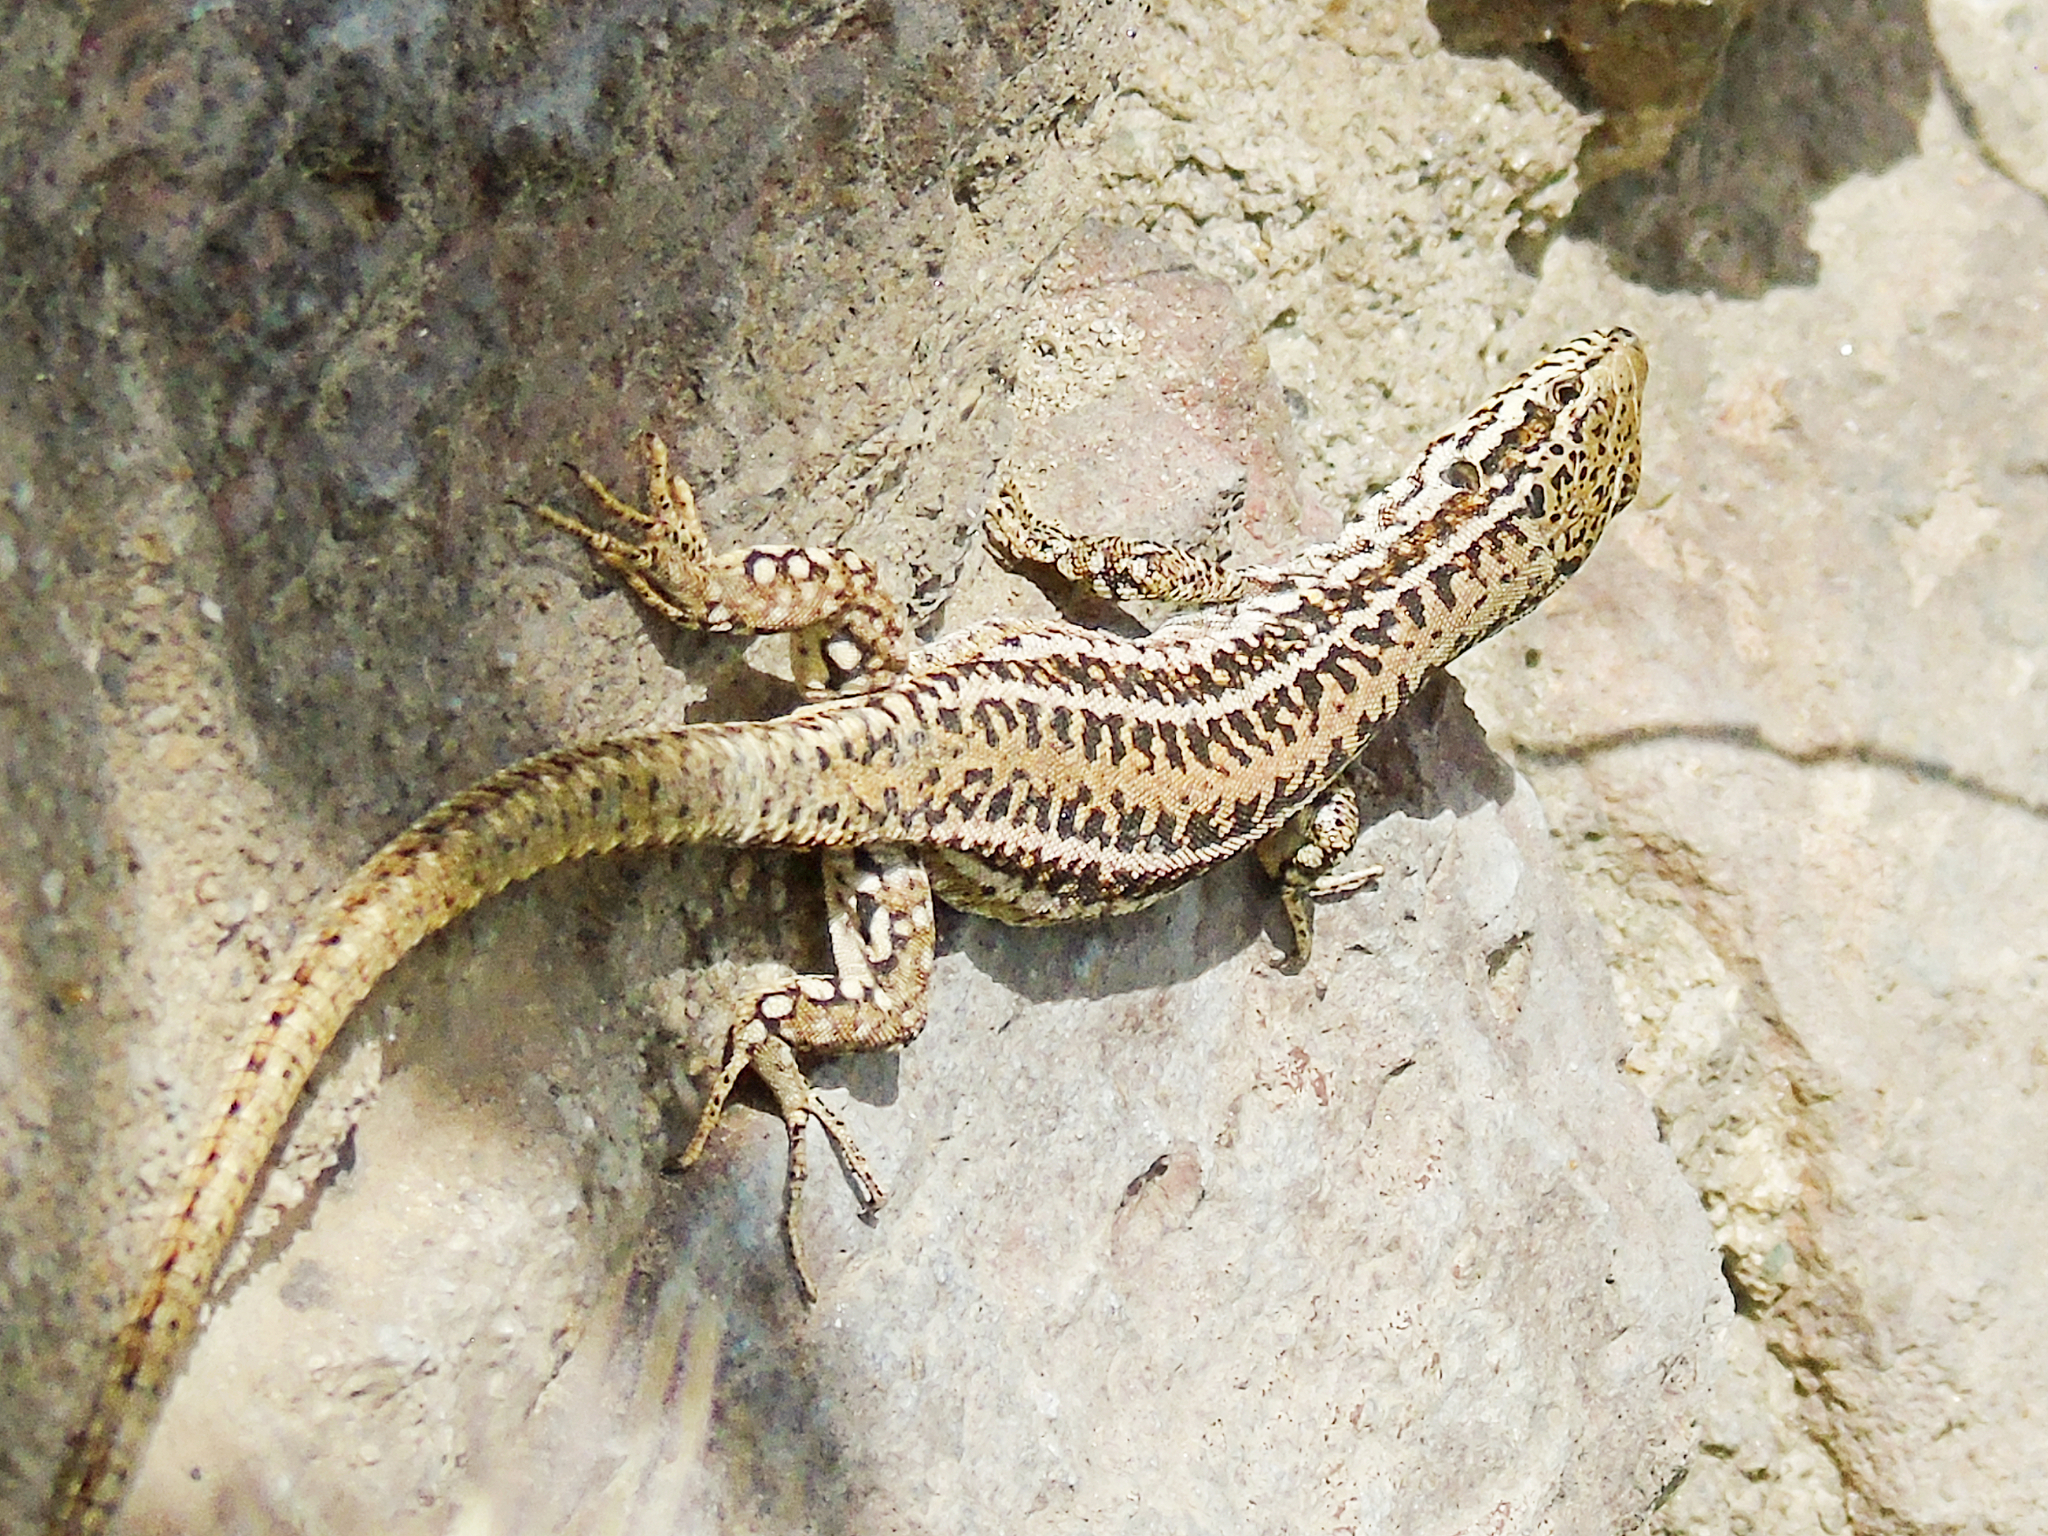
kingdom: Animalia
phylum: Chordata
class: Squamata
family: Lacertidae
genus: Podarcis
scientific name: Podarcis erhardii
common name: Erhard's wall lizard
